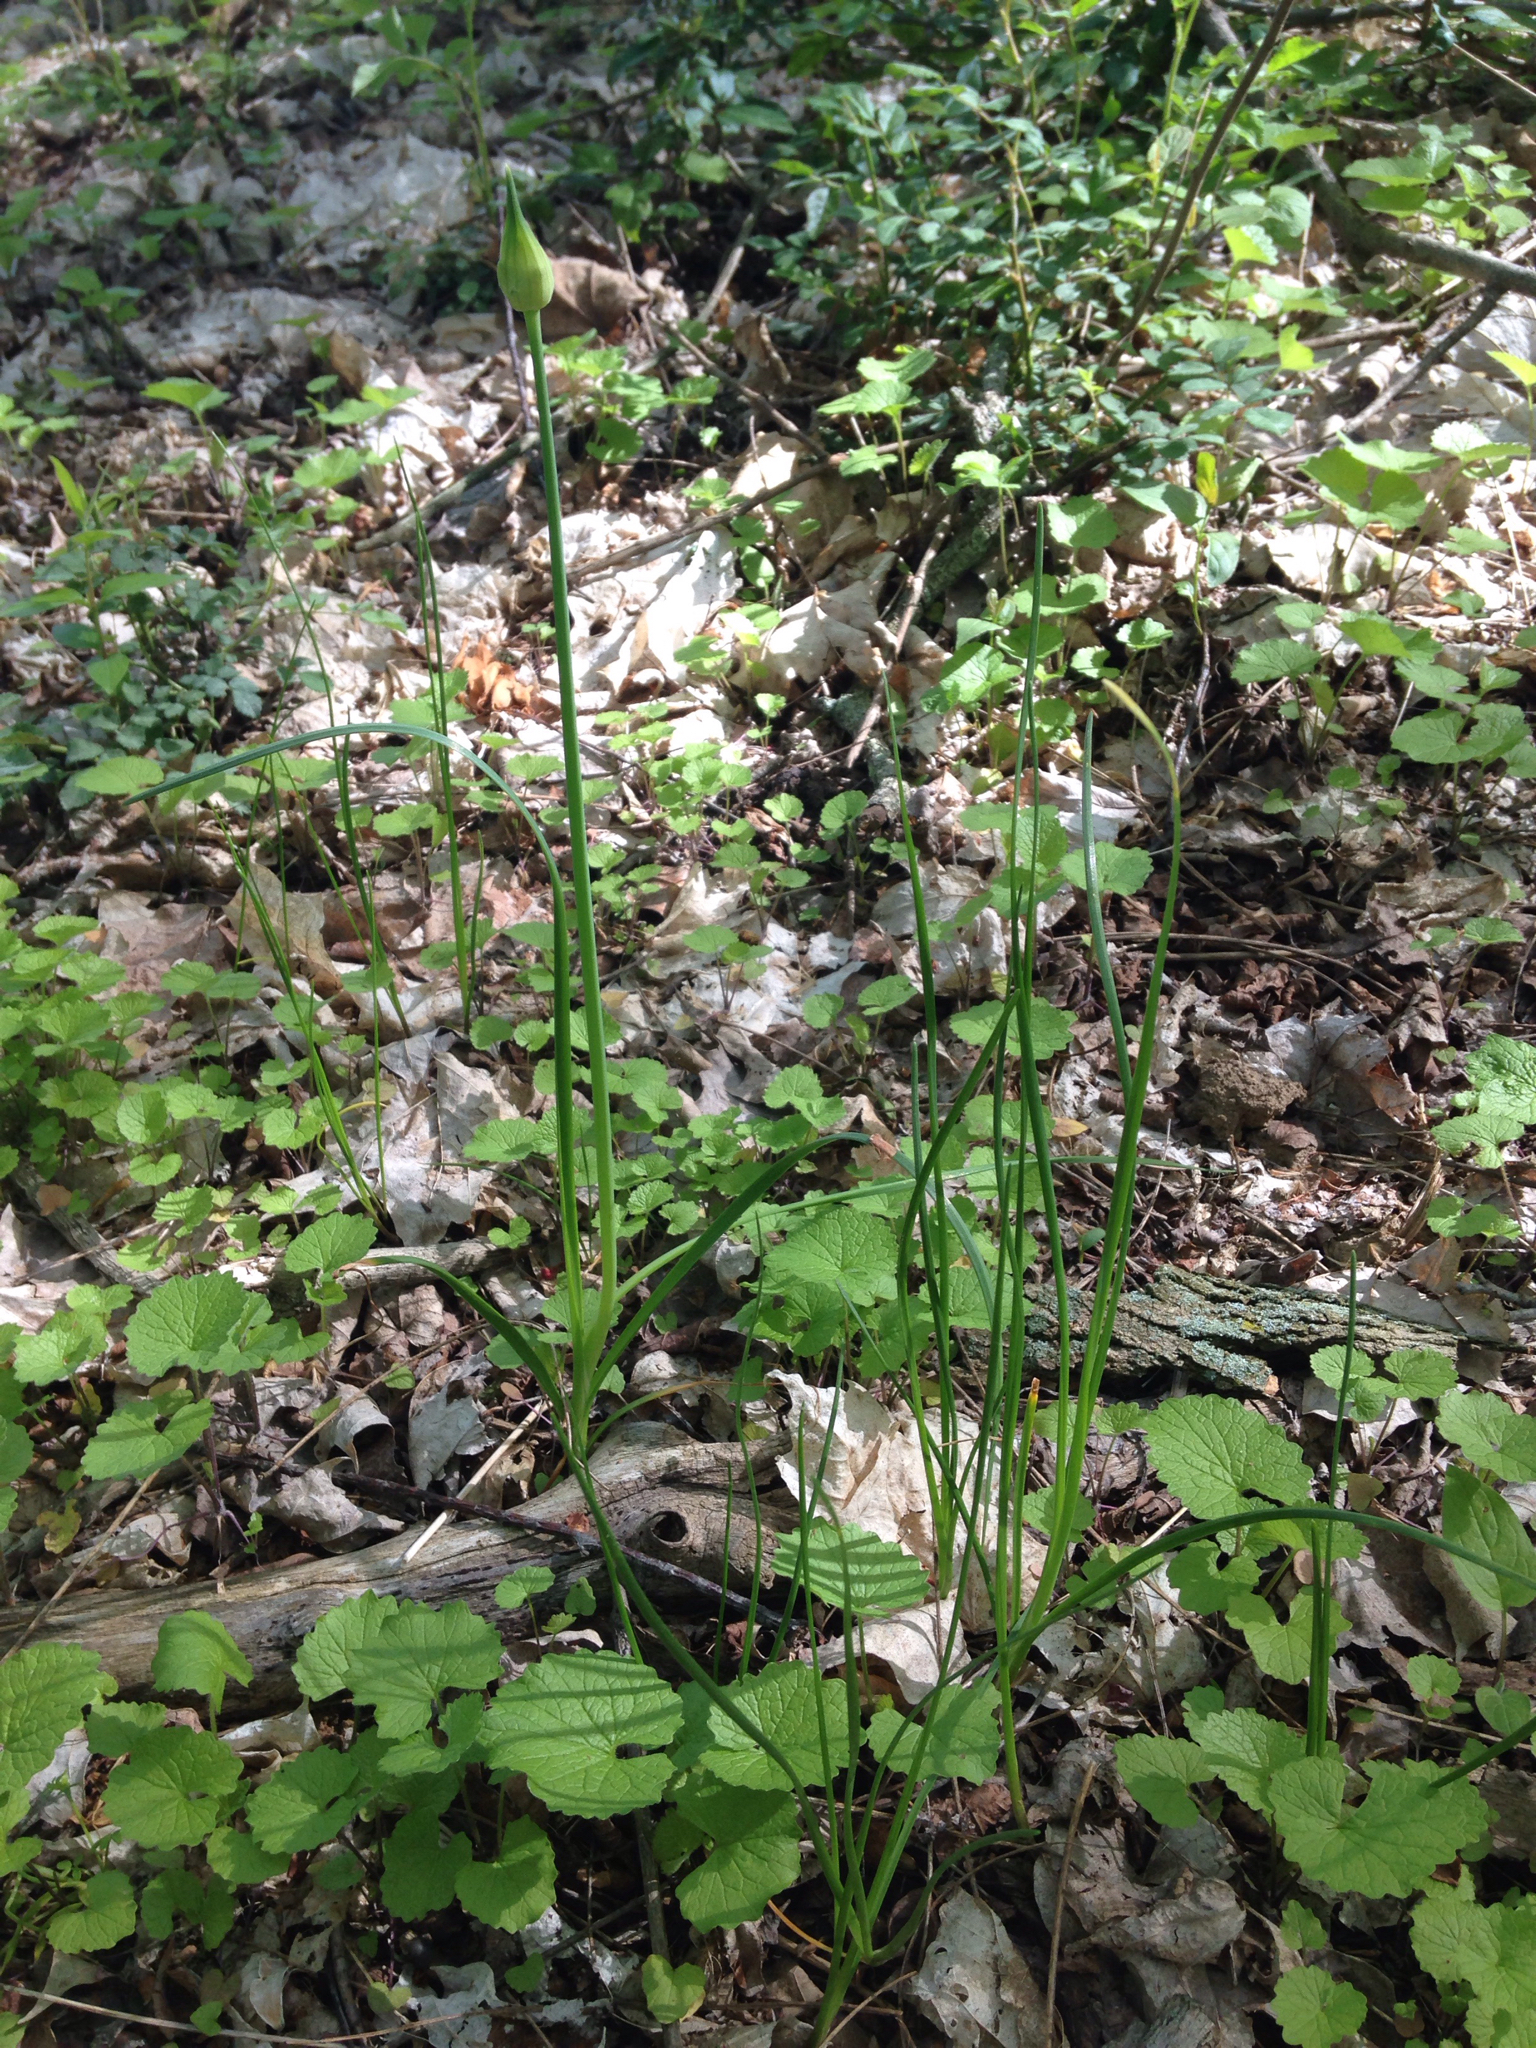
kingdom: Plantae
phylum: Tracheophyta
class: Liliopsida
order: Asparagales
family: Amaryllidaceae
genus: Allium
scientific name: Allium canadense
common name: Meadow garlic
